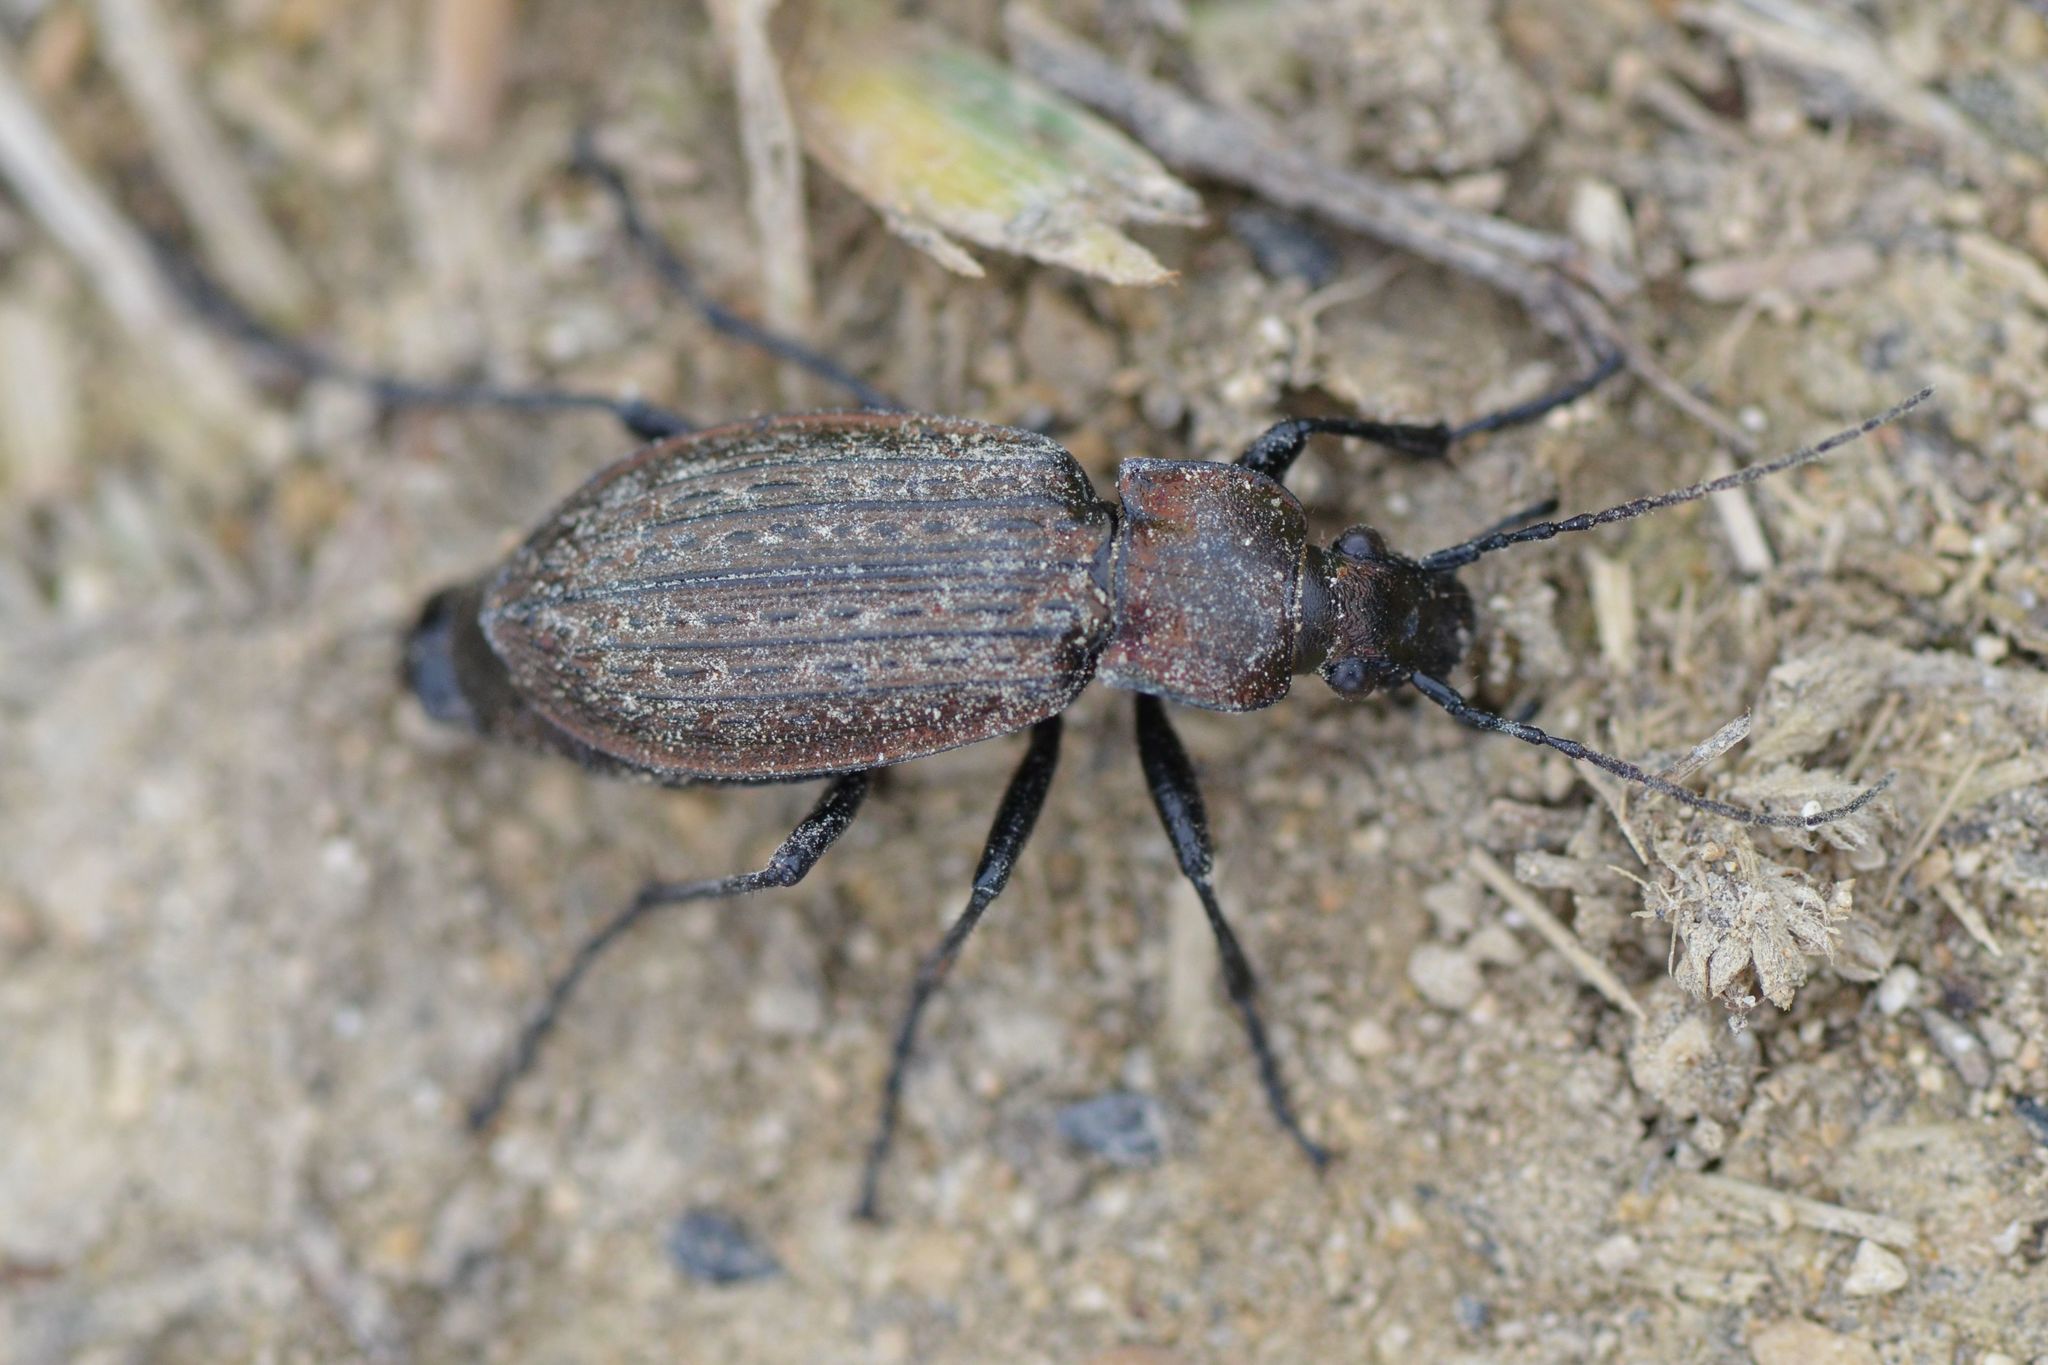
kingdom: Animalia
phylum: Arthropoda
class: Insecta
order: Coleoptera
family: Carabidae
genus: Carabus
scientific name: Carabus granulatus
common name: Granulate ground beetle
